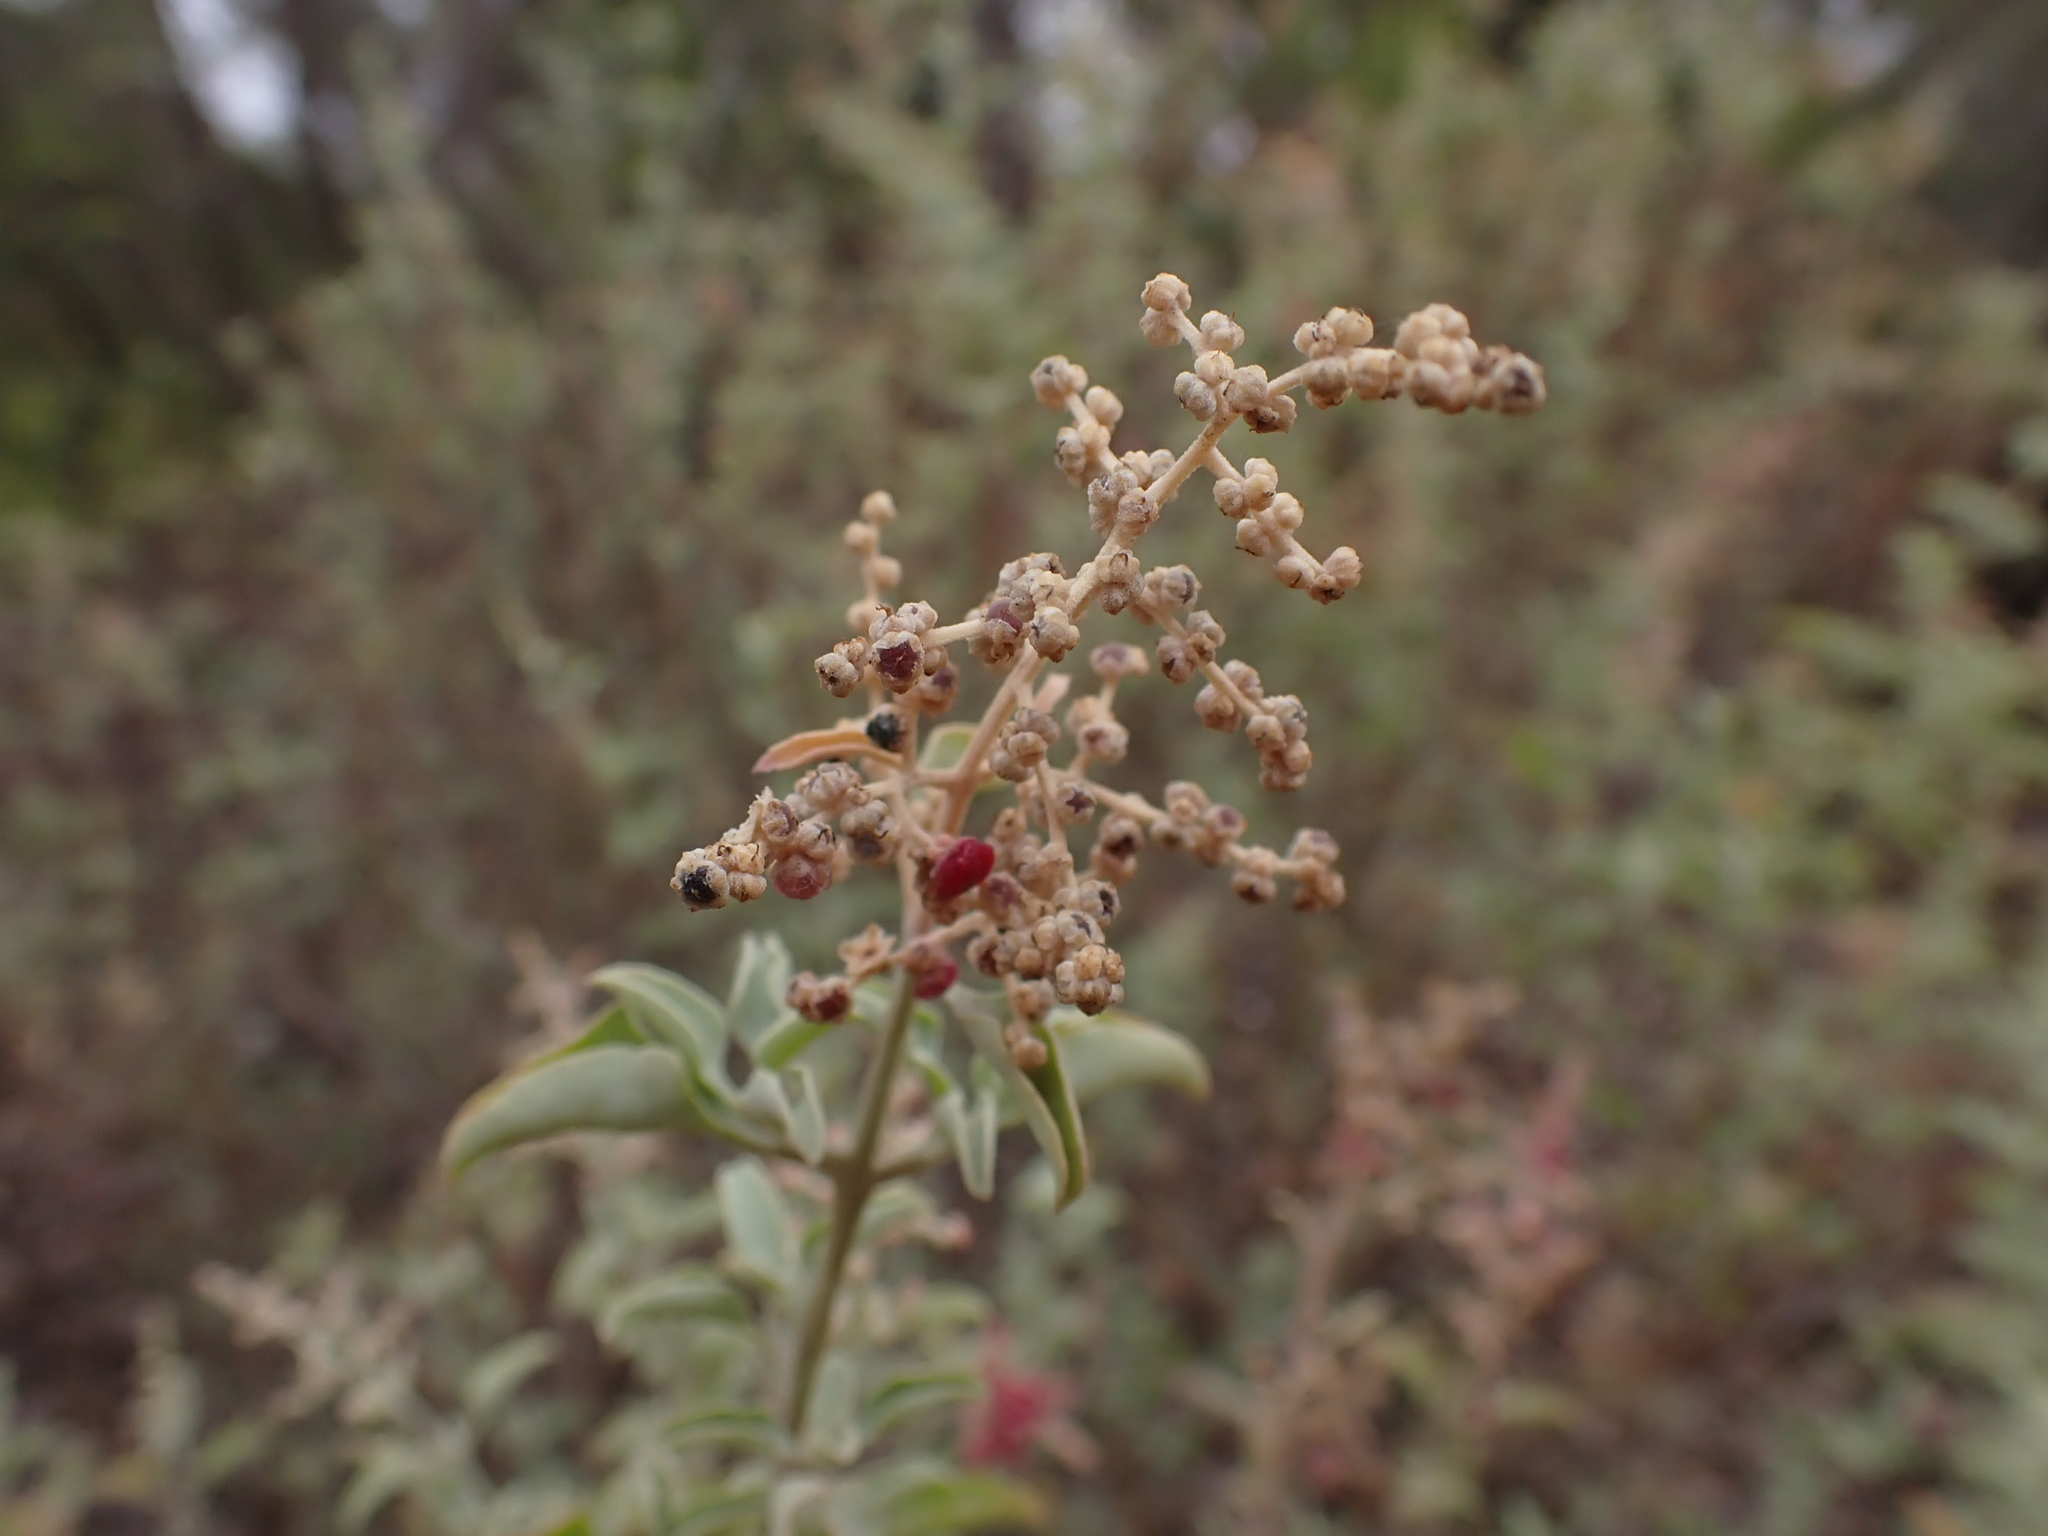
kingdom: Plantae
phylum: Tracheophyta
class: Magnoliopsida
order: Caryophyllales
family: Amaranthaceae
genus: Chenopodium
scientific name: Chenopodium parabolicum
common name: Old-man-saltbush
